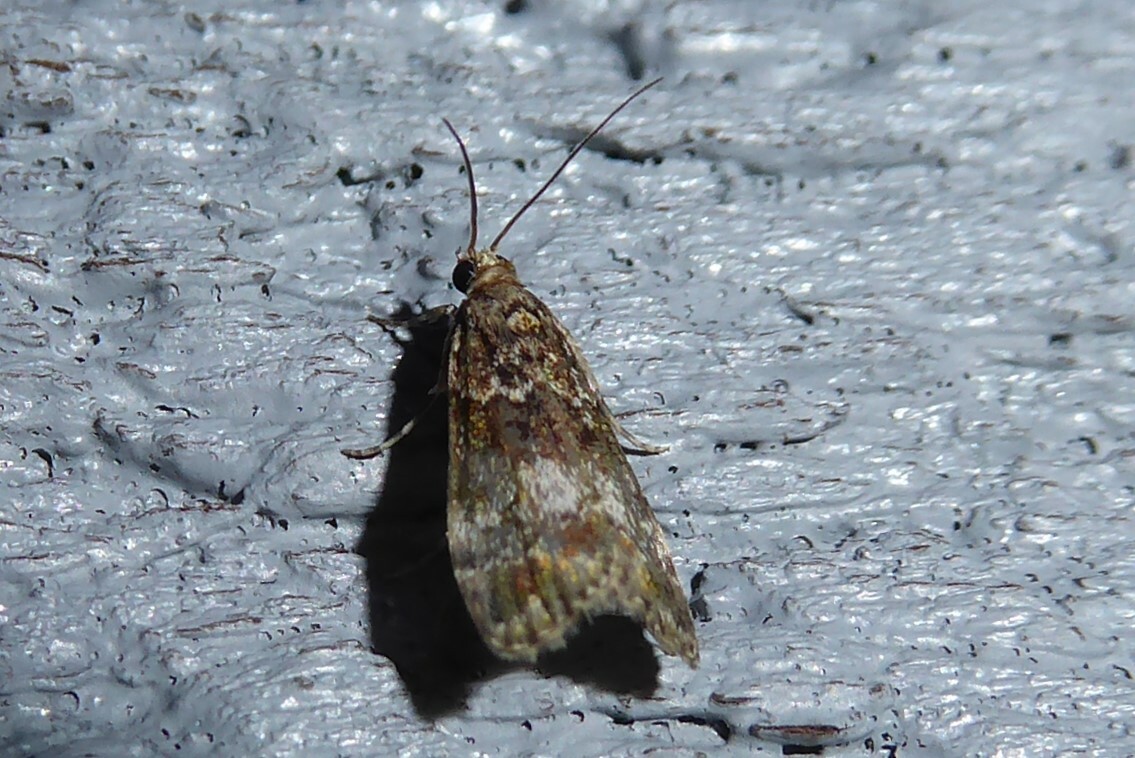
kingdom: Animalia
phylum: Arthropoda
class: Insecta
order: Lepidoptera
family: Crambidae
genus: Eudonia
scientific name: Eudonia minualis
